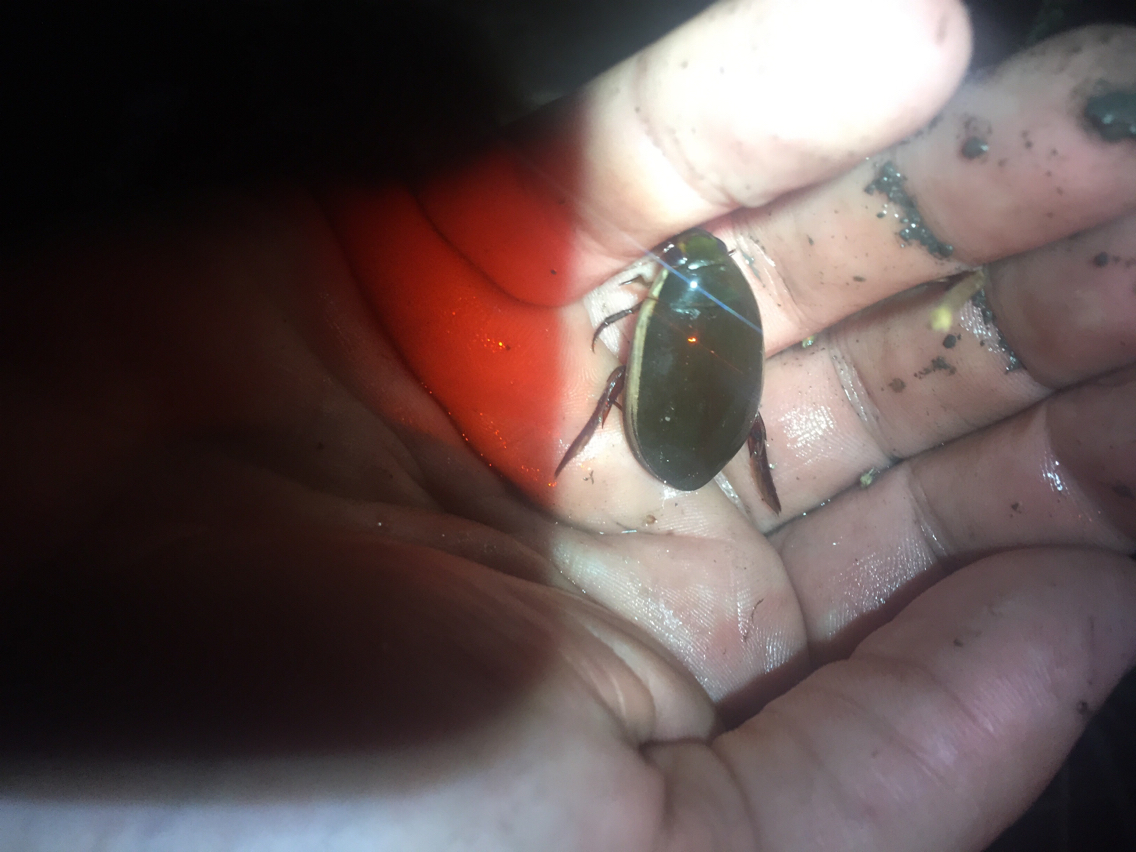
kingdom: Animalia
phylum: Arthropoda
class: Insecta
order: Coleoptera
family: Dytiscidae
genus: Cybister
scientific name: Cybister fimbriolatus
